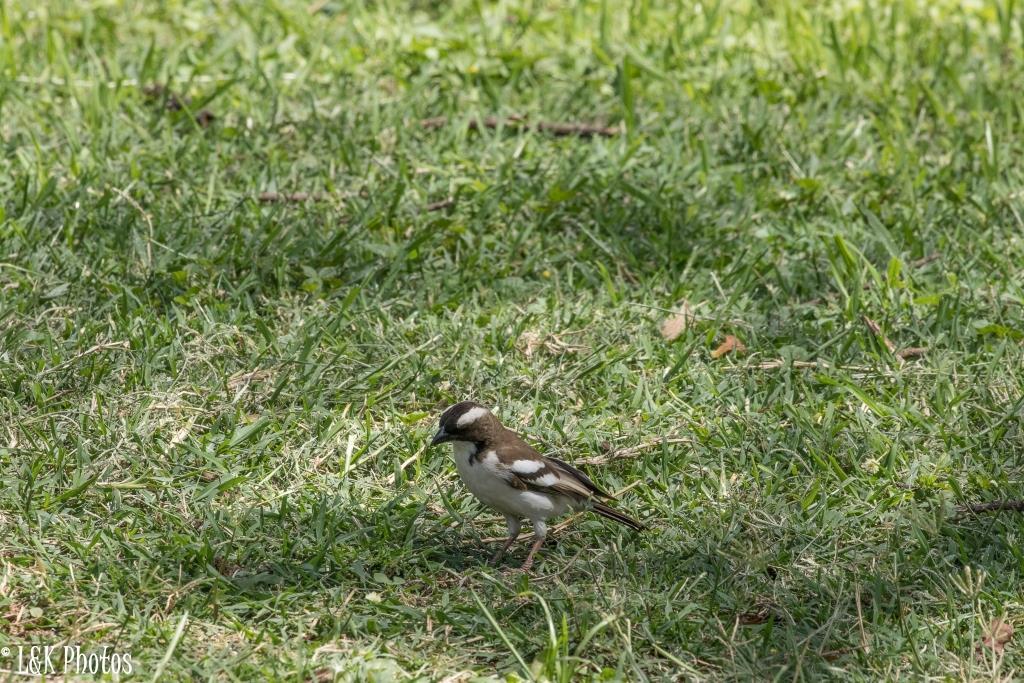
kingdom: Animalia
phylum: Chordata
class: Aves
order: Passeriformes
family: Passeridae
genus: Plocepasser
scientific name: Plocepasser mahali
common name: White-browed sparrow-weaver
